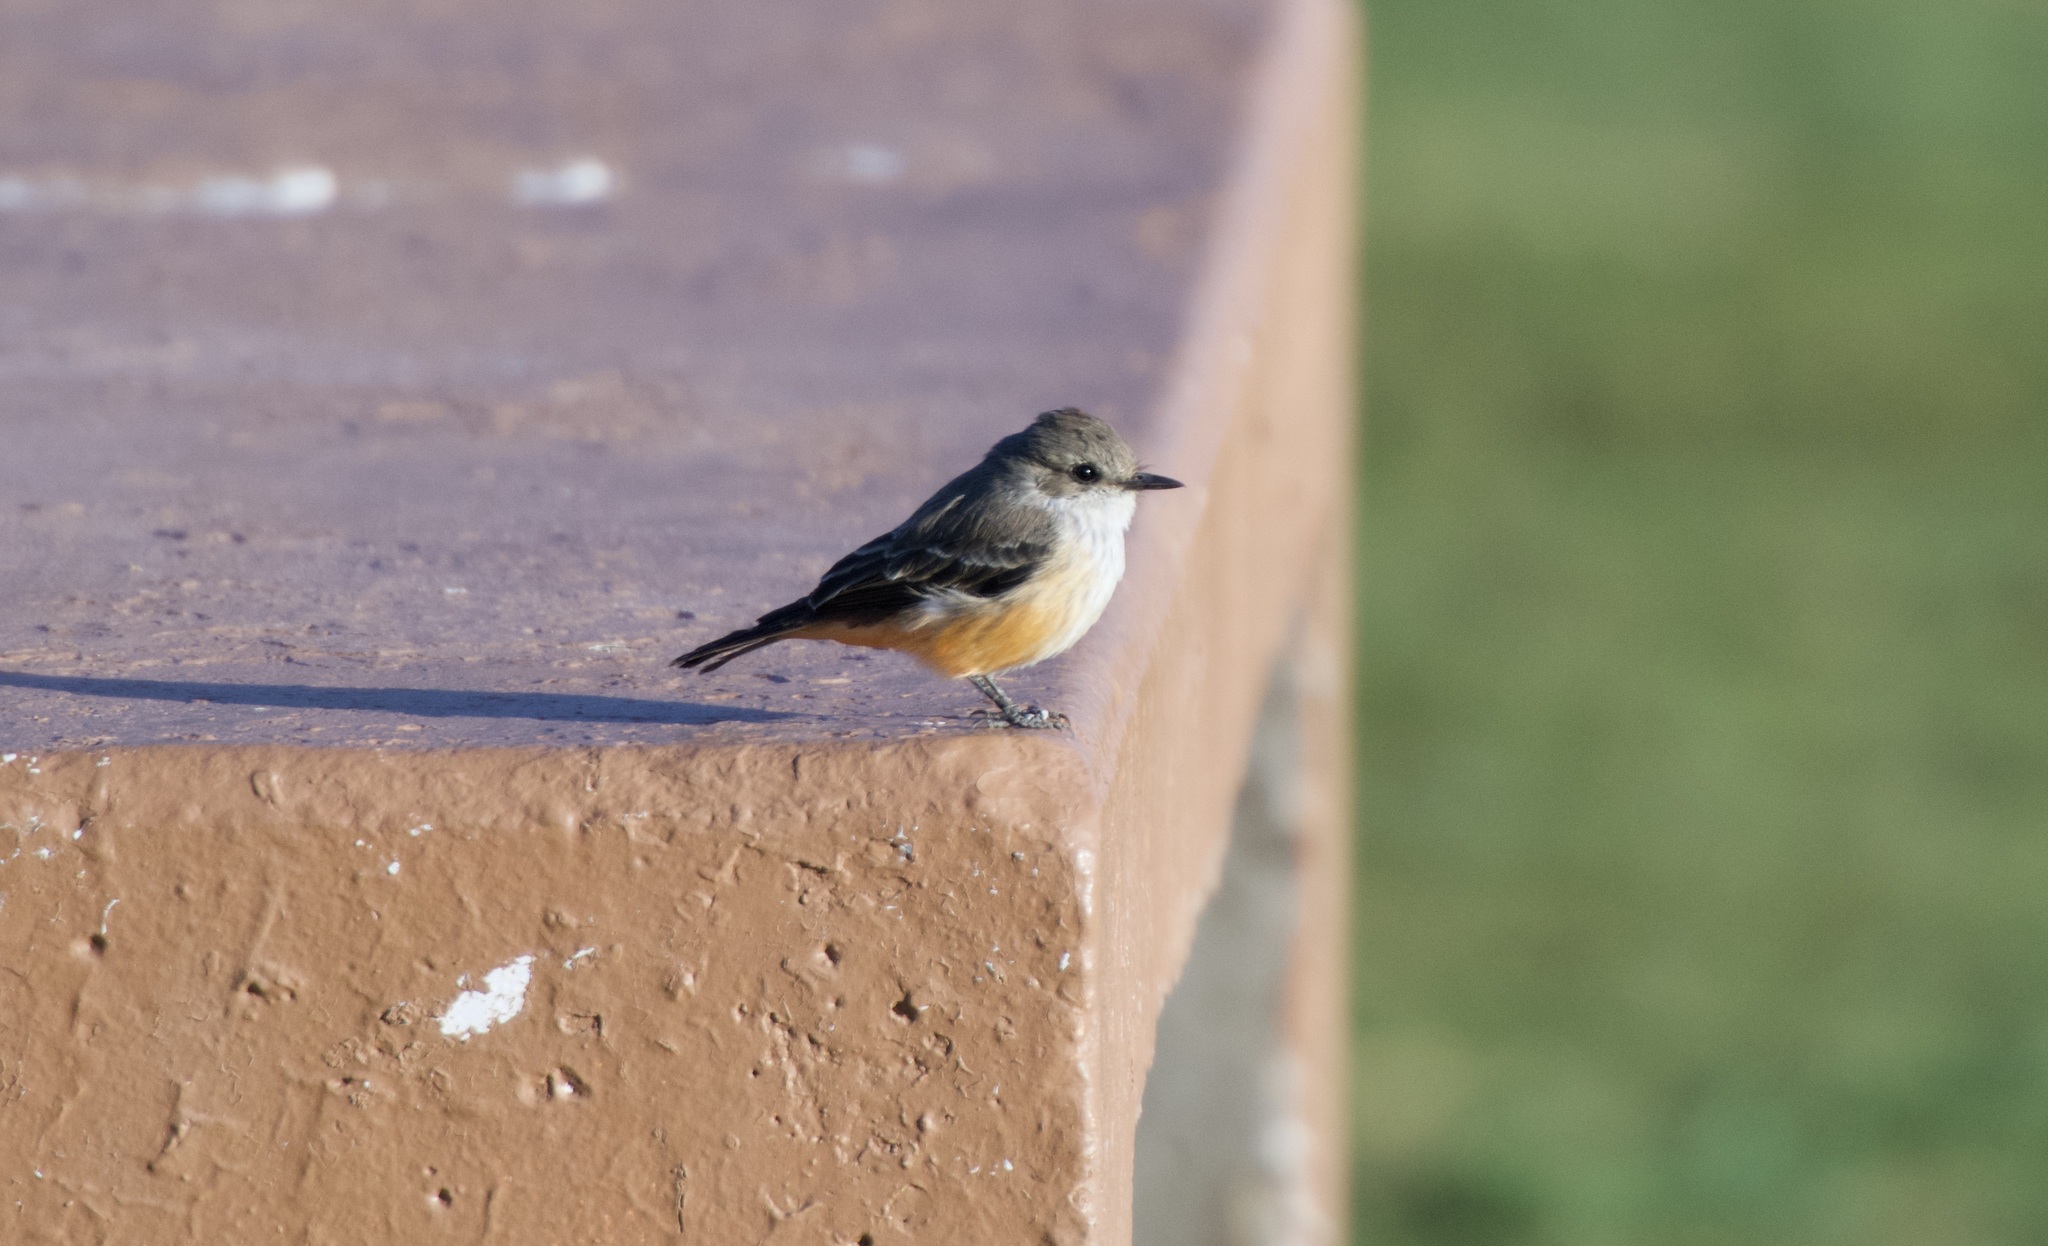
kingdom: Animalia
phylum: Chordata
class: Aves
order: Passeriformes
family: Tyrannidae
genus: Pyrocephalus
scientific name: Pyrocephalus rubinus
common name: Vermilion flycatcher
